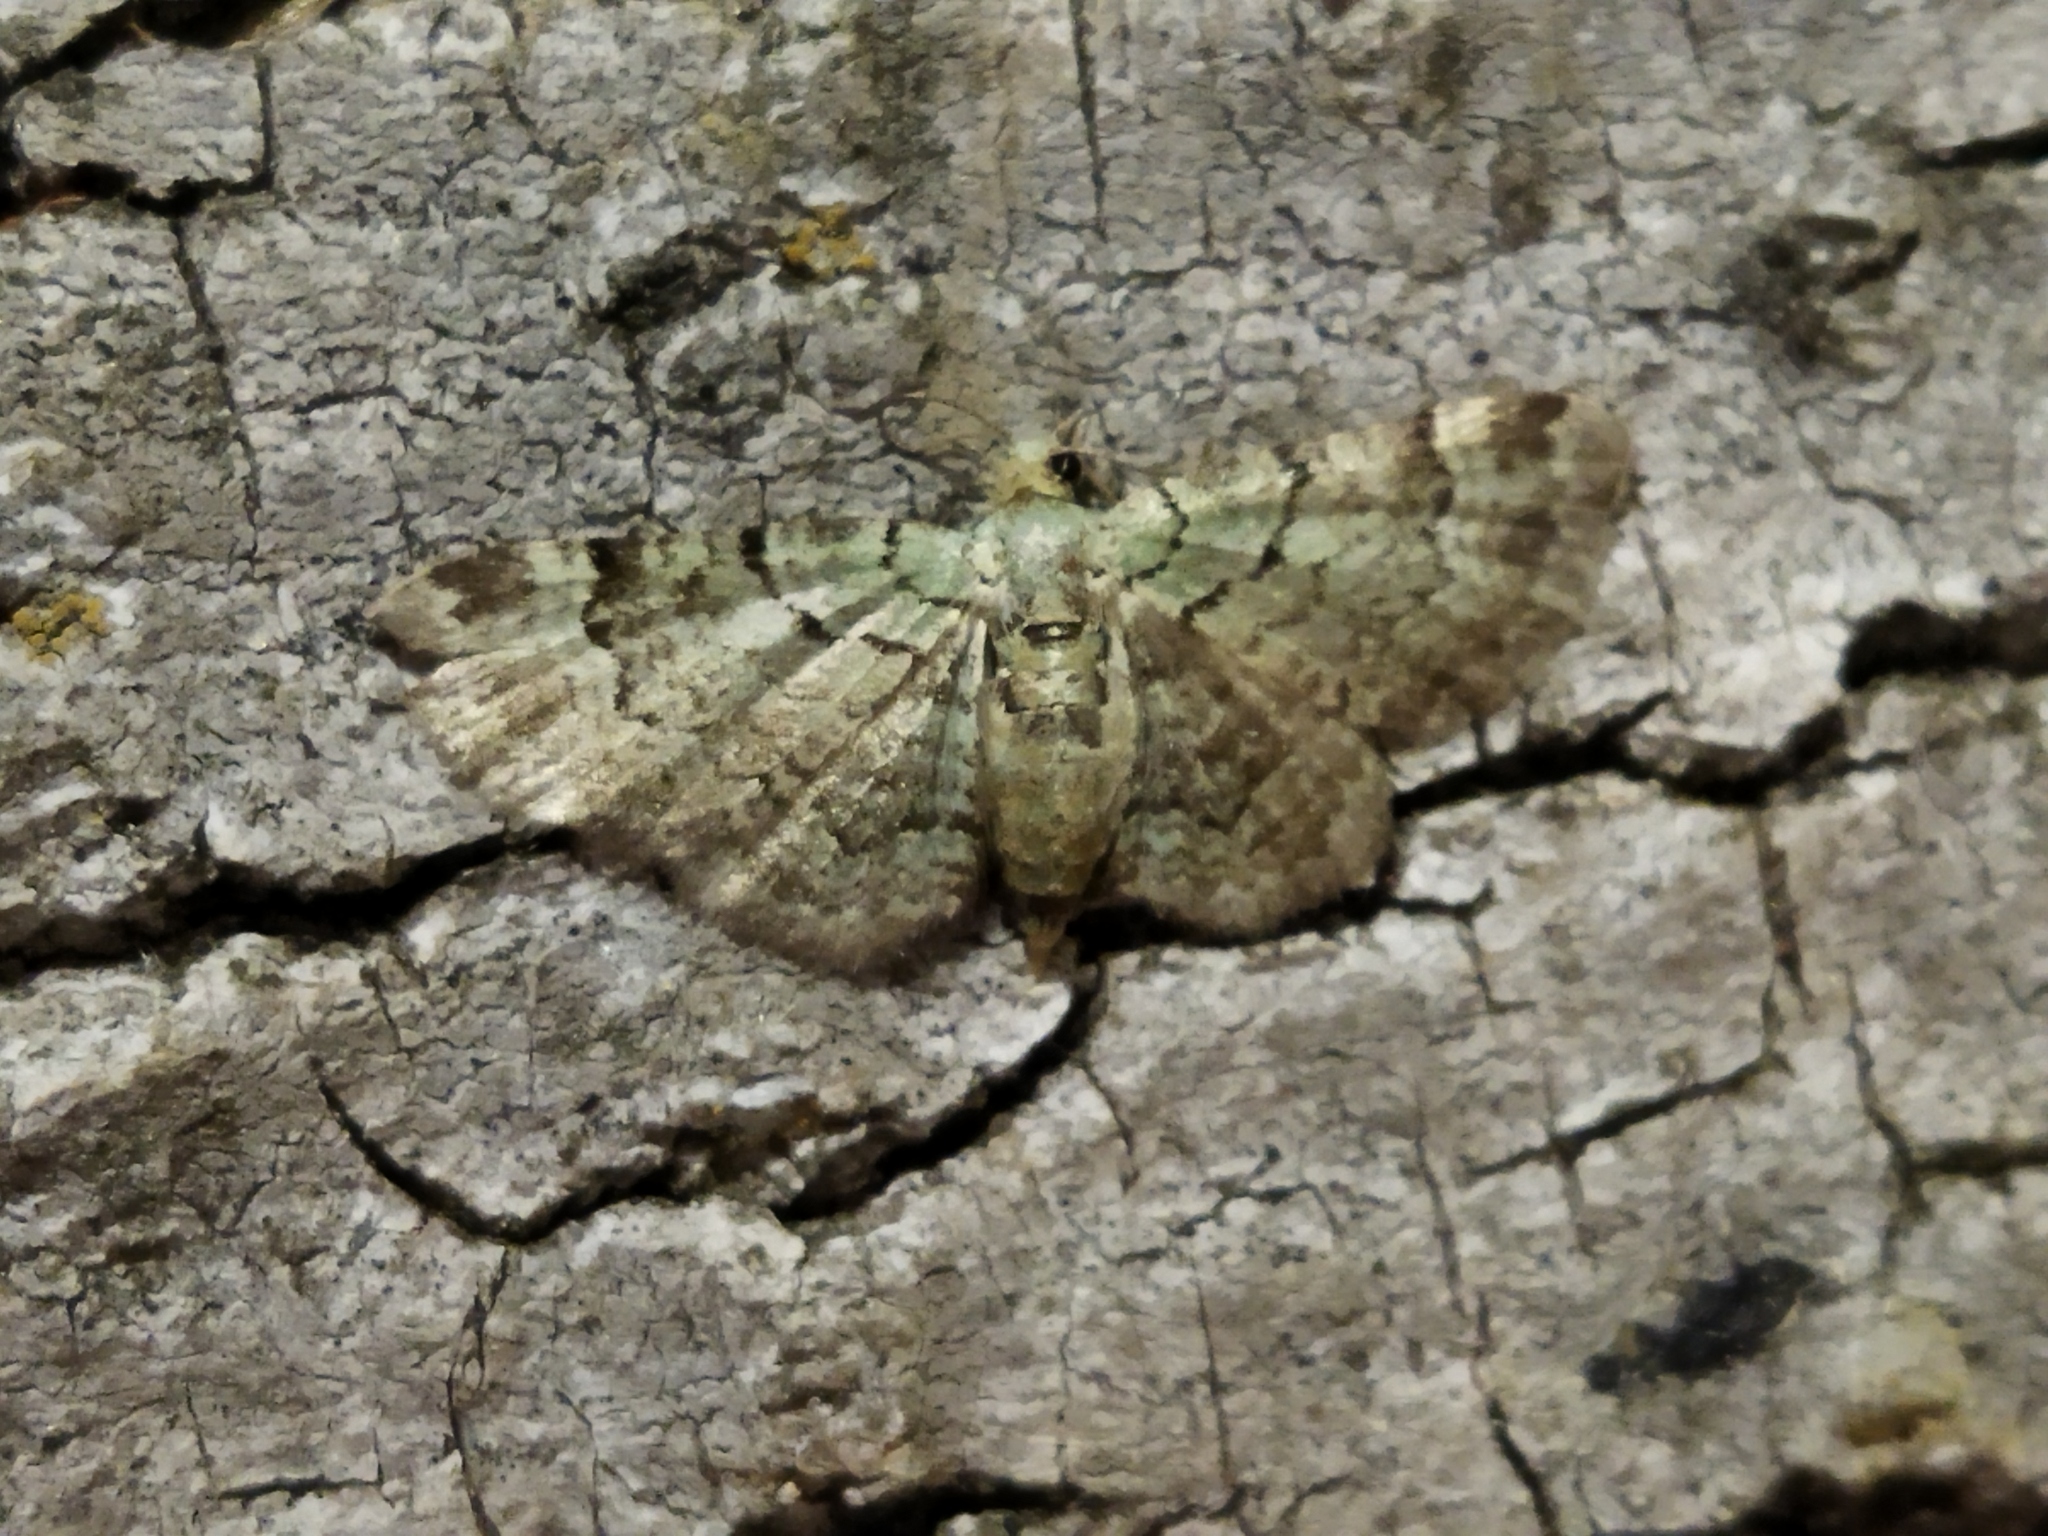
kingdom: Animalia
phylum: Arthropoda
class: Insecta
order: Lepidoptera
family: Geometridae
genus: Pasiphila
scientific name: Pasiphila rectangulata
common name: Green pug
